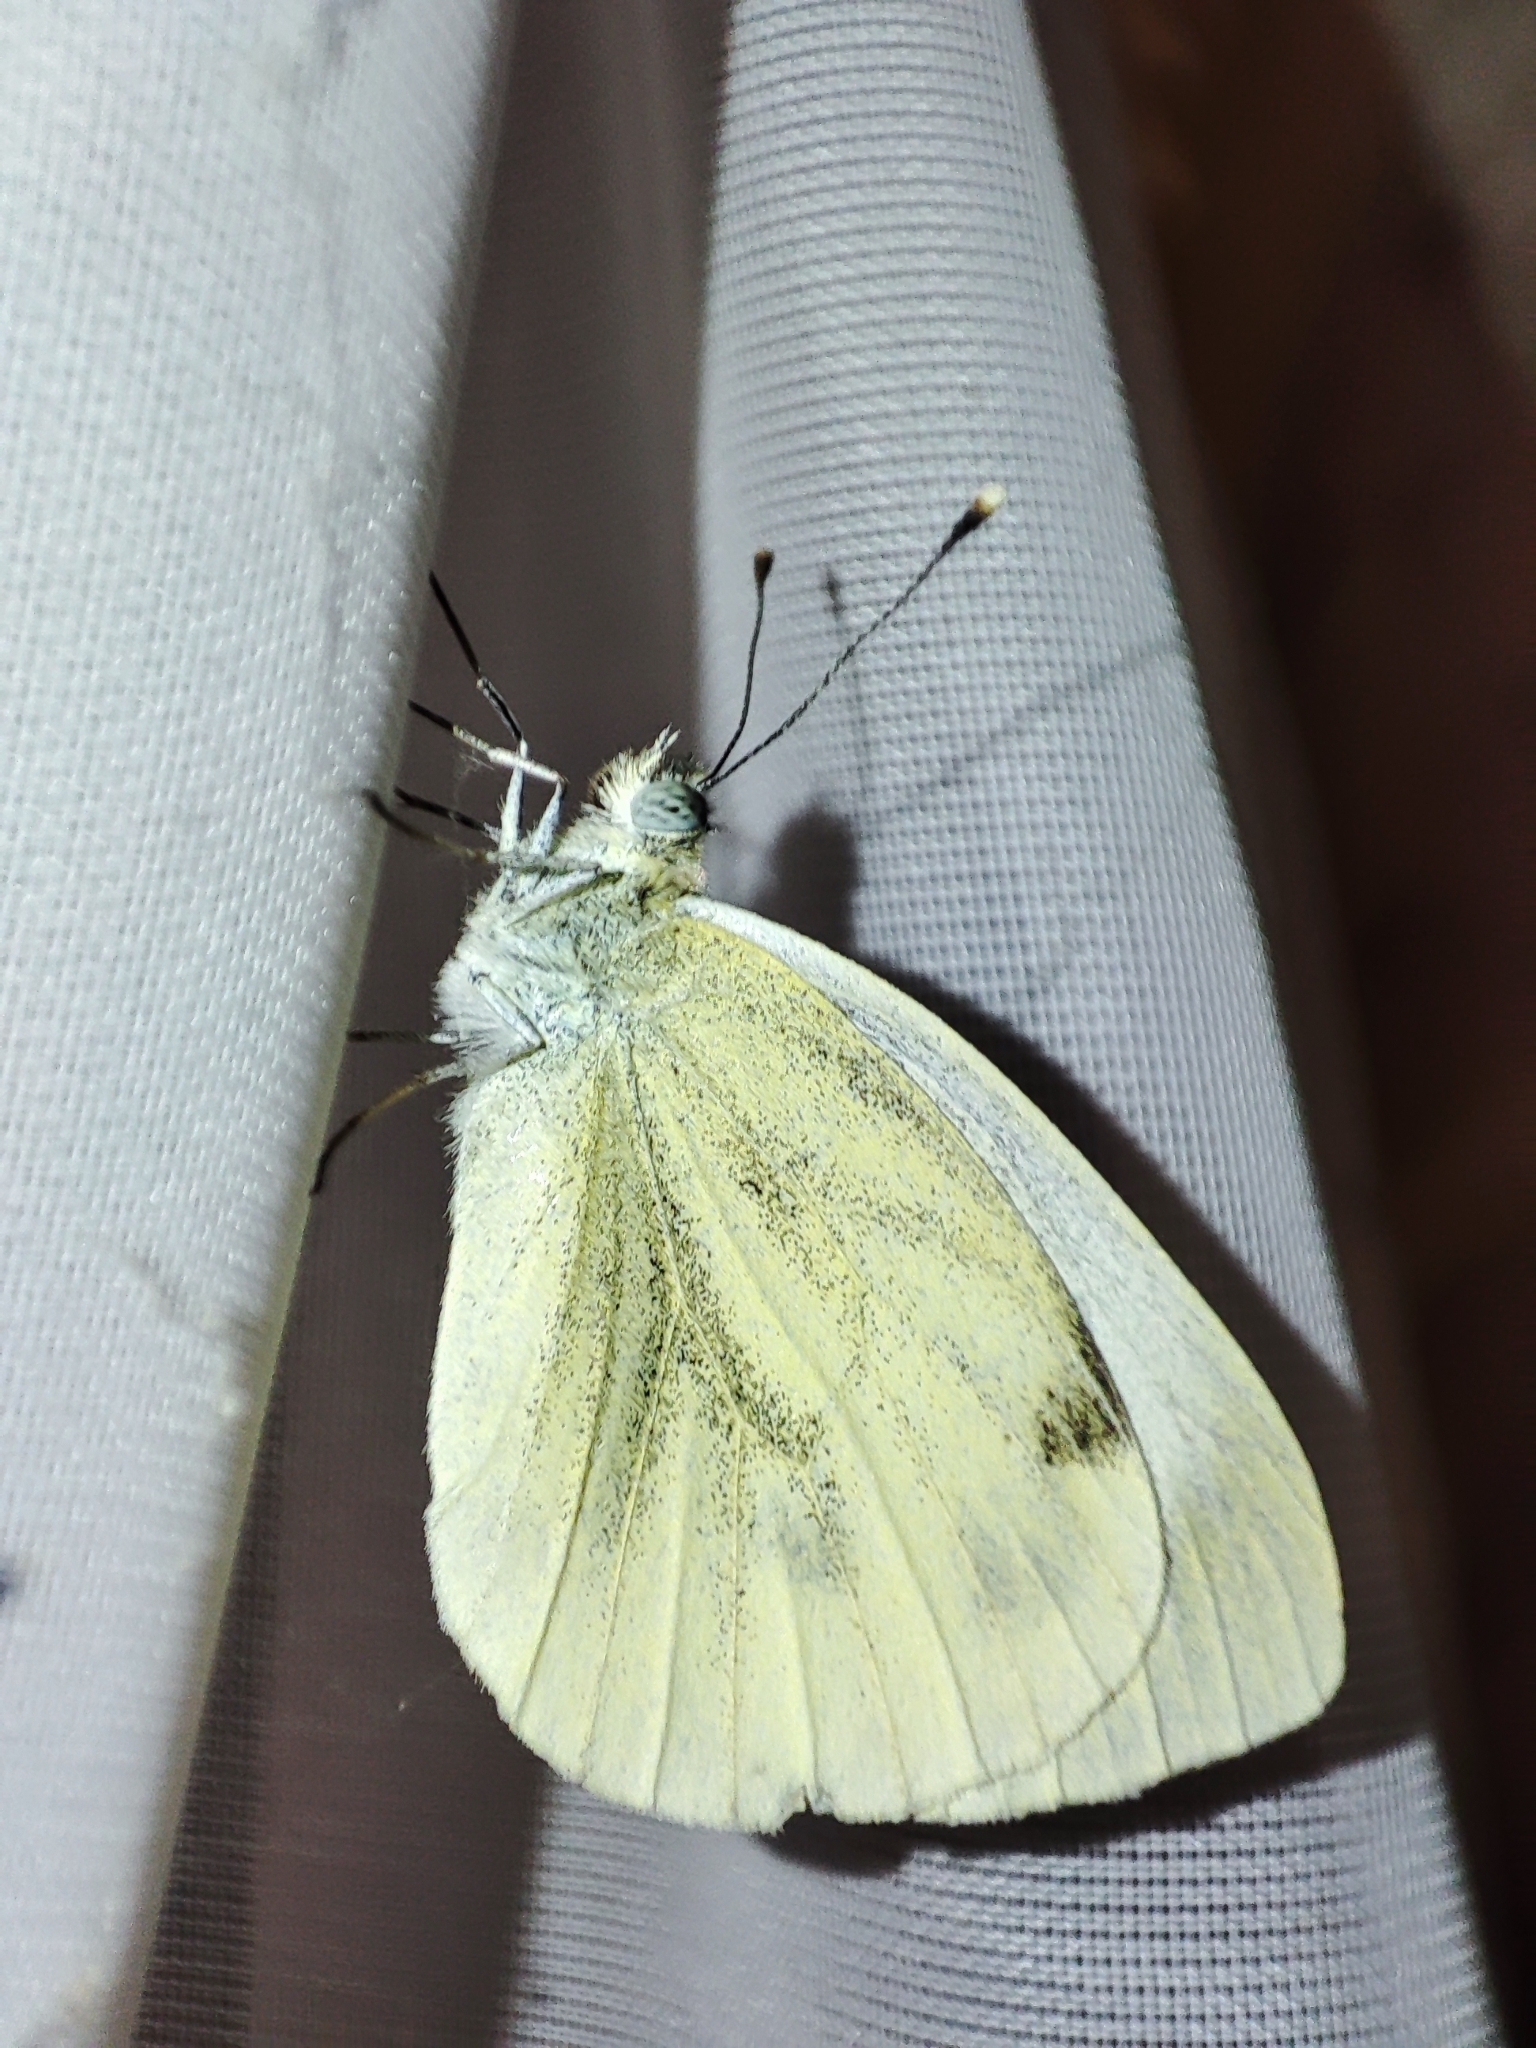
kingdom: Animalia
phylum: Arthropoda
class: Insecta
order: Lepidoptera
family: Pieridae
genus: Pieris
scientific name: Pieris napi
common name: Green-veined white
